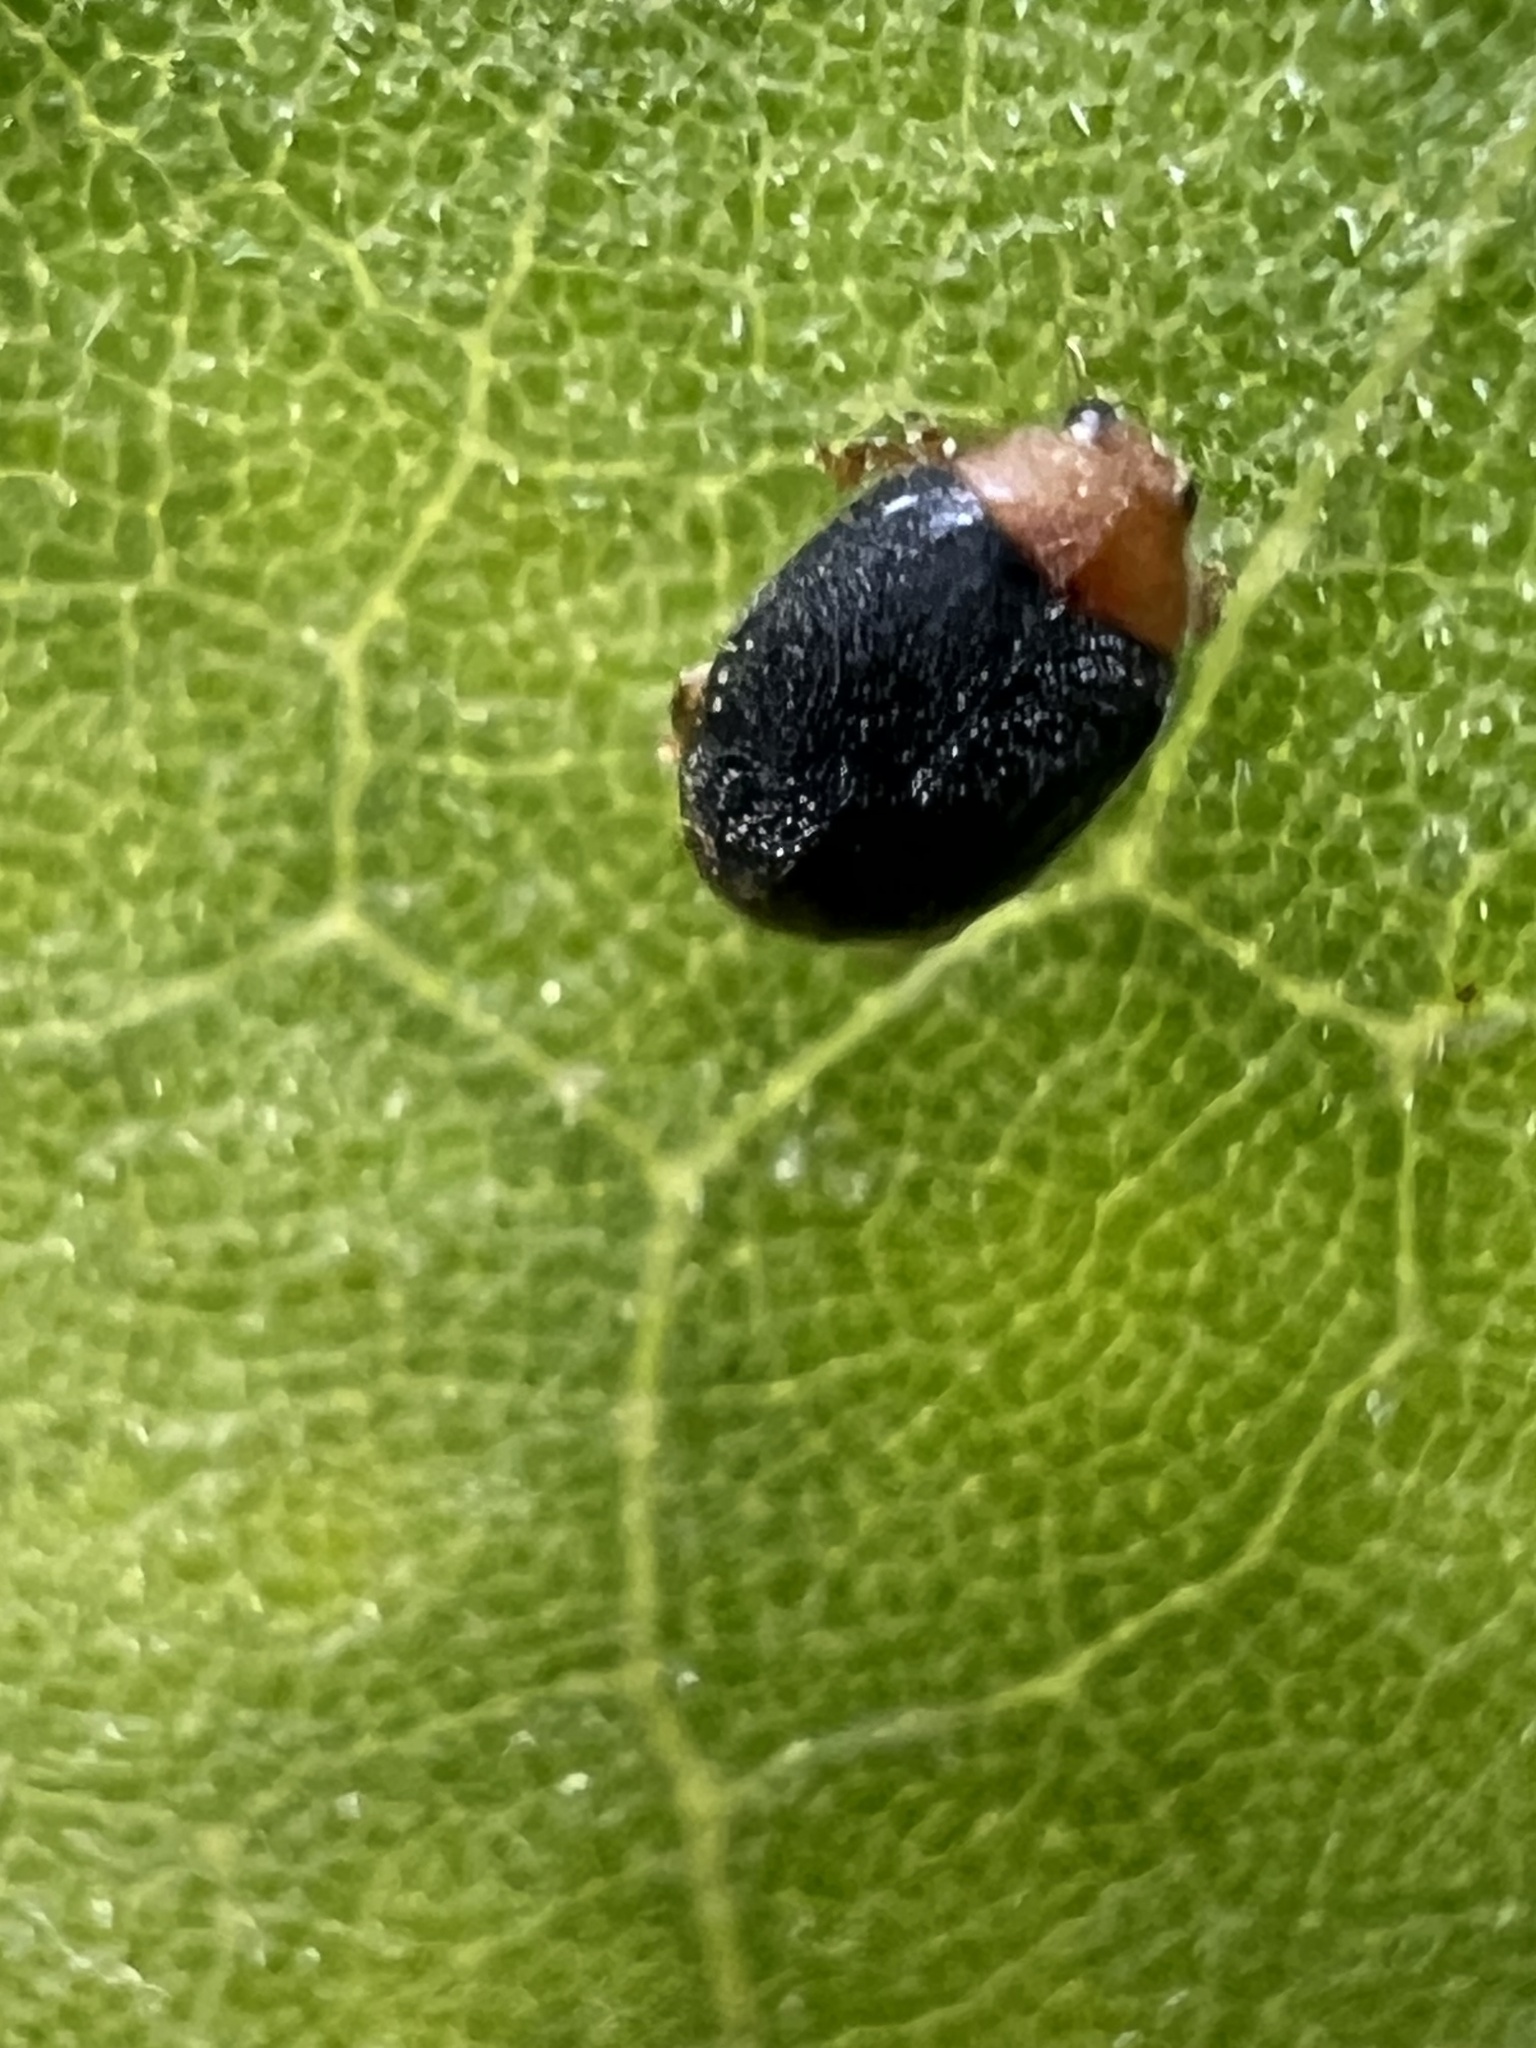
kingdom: Animalia
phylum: Arthropoda
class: Insecta
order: Coleoptera
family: Coccinellidae
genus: Cryptolaemus
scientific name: Cryptolaemus montrouzieri
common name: Mealybug destroyer
